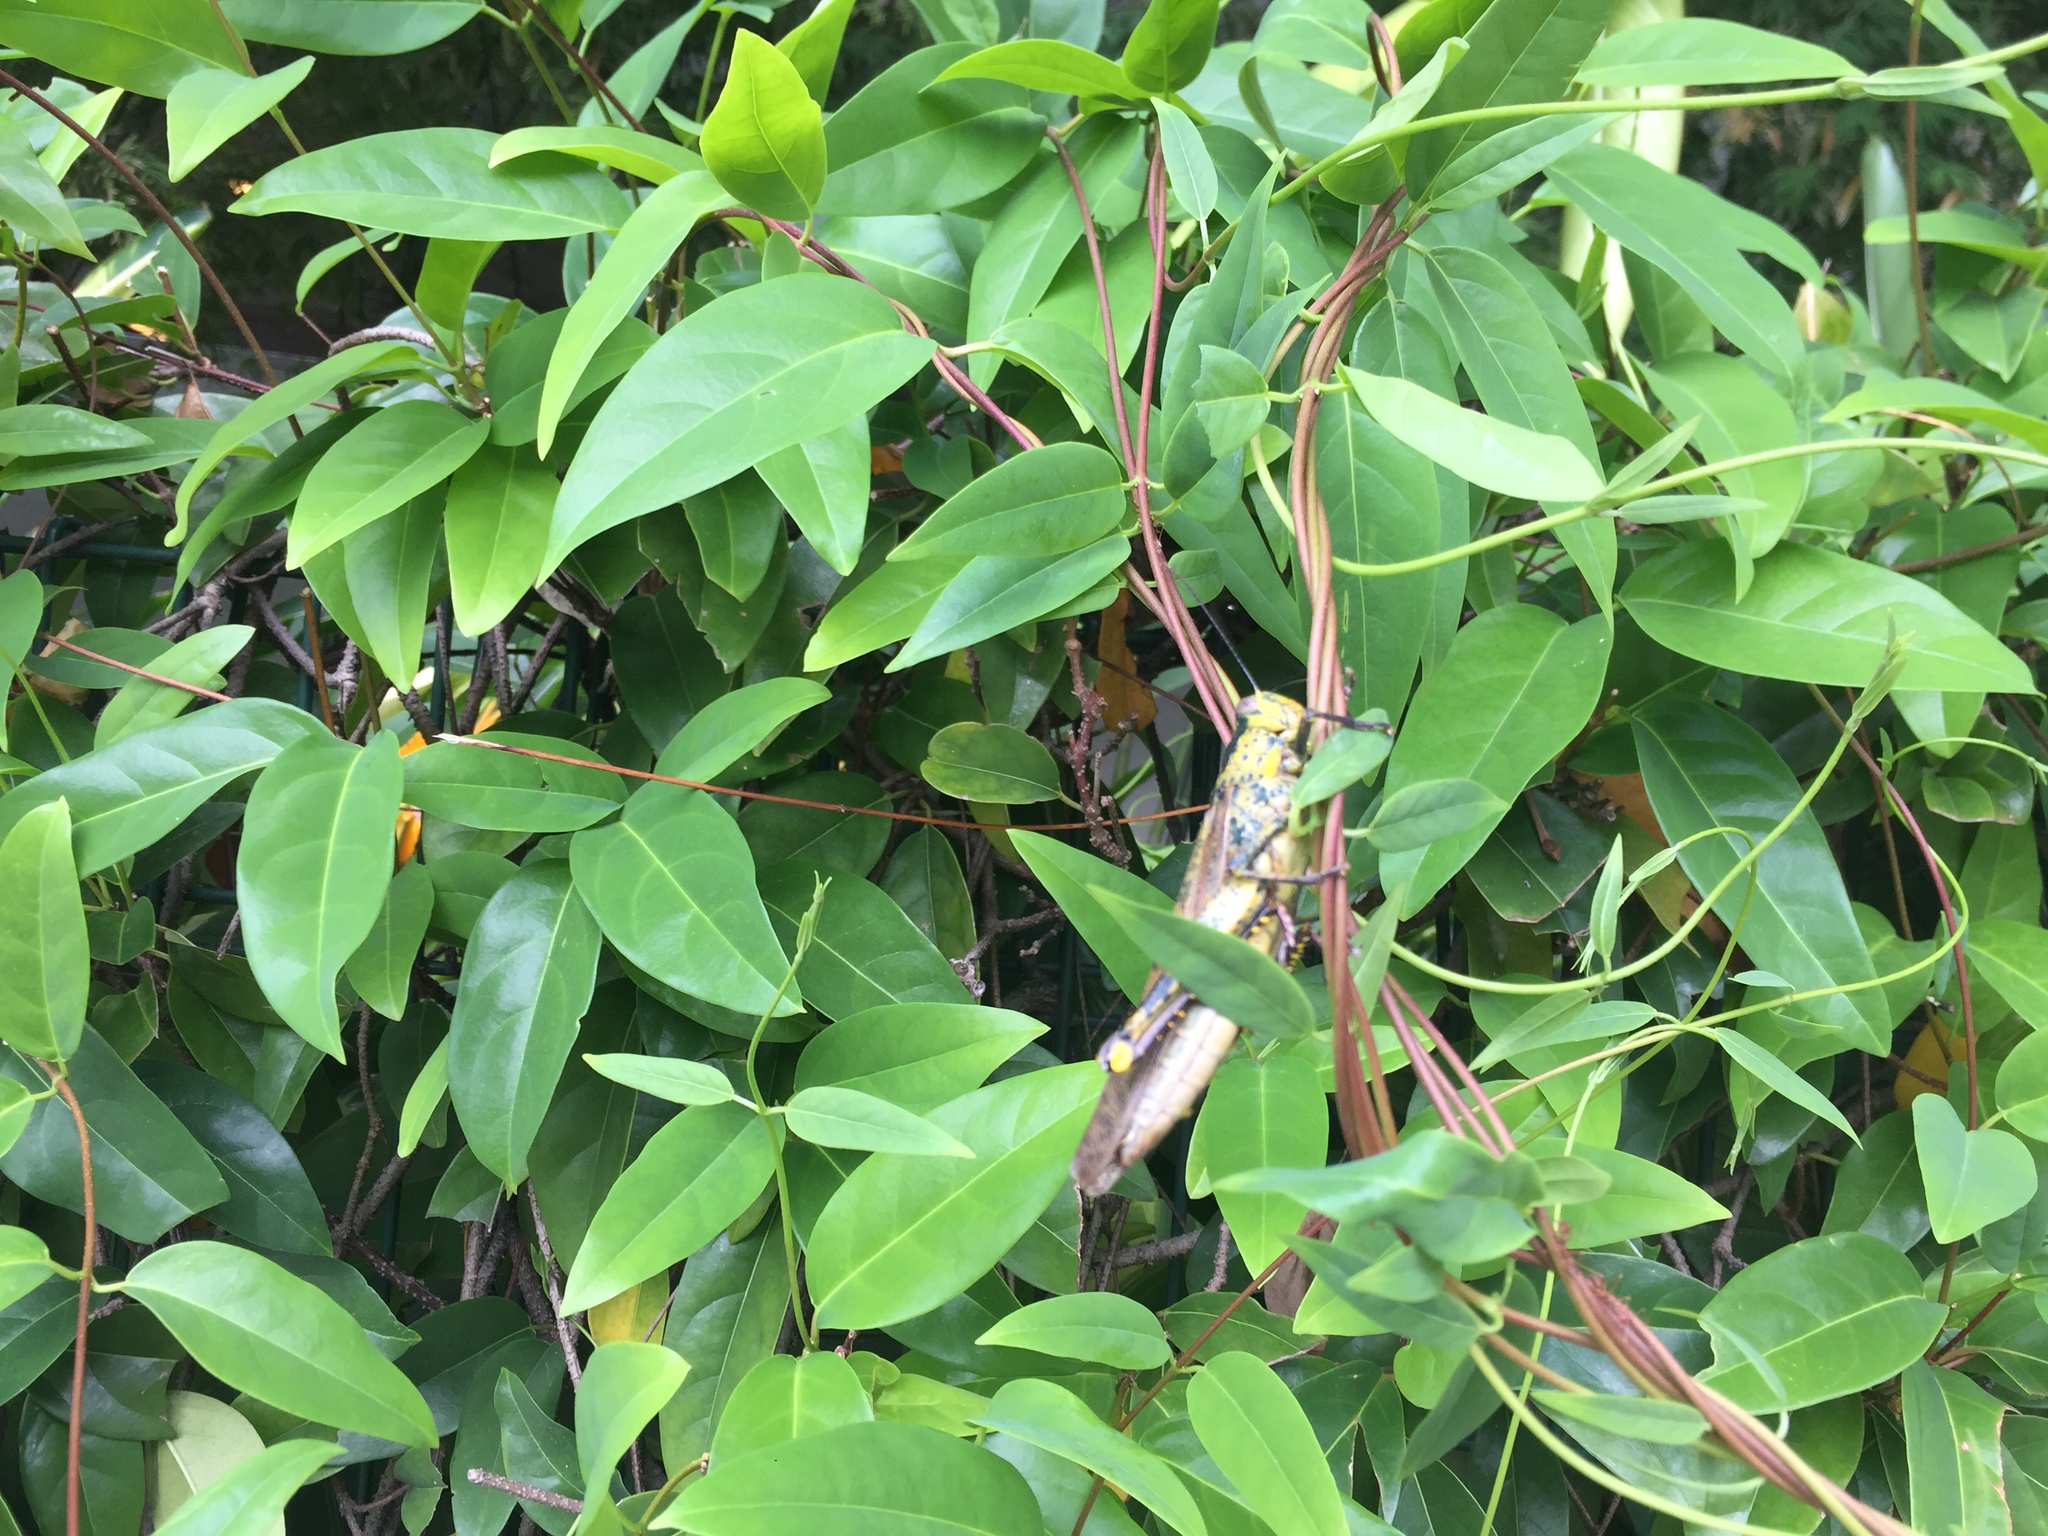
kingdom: Animalia
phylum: Arthropoda
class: Insecta
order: Orthoptera
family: Acrididae
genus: Valanga
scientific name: Valanga nigricornis
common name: Javanese bird grasshopper
